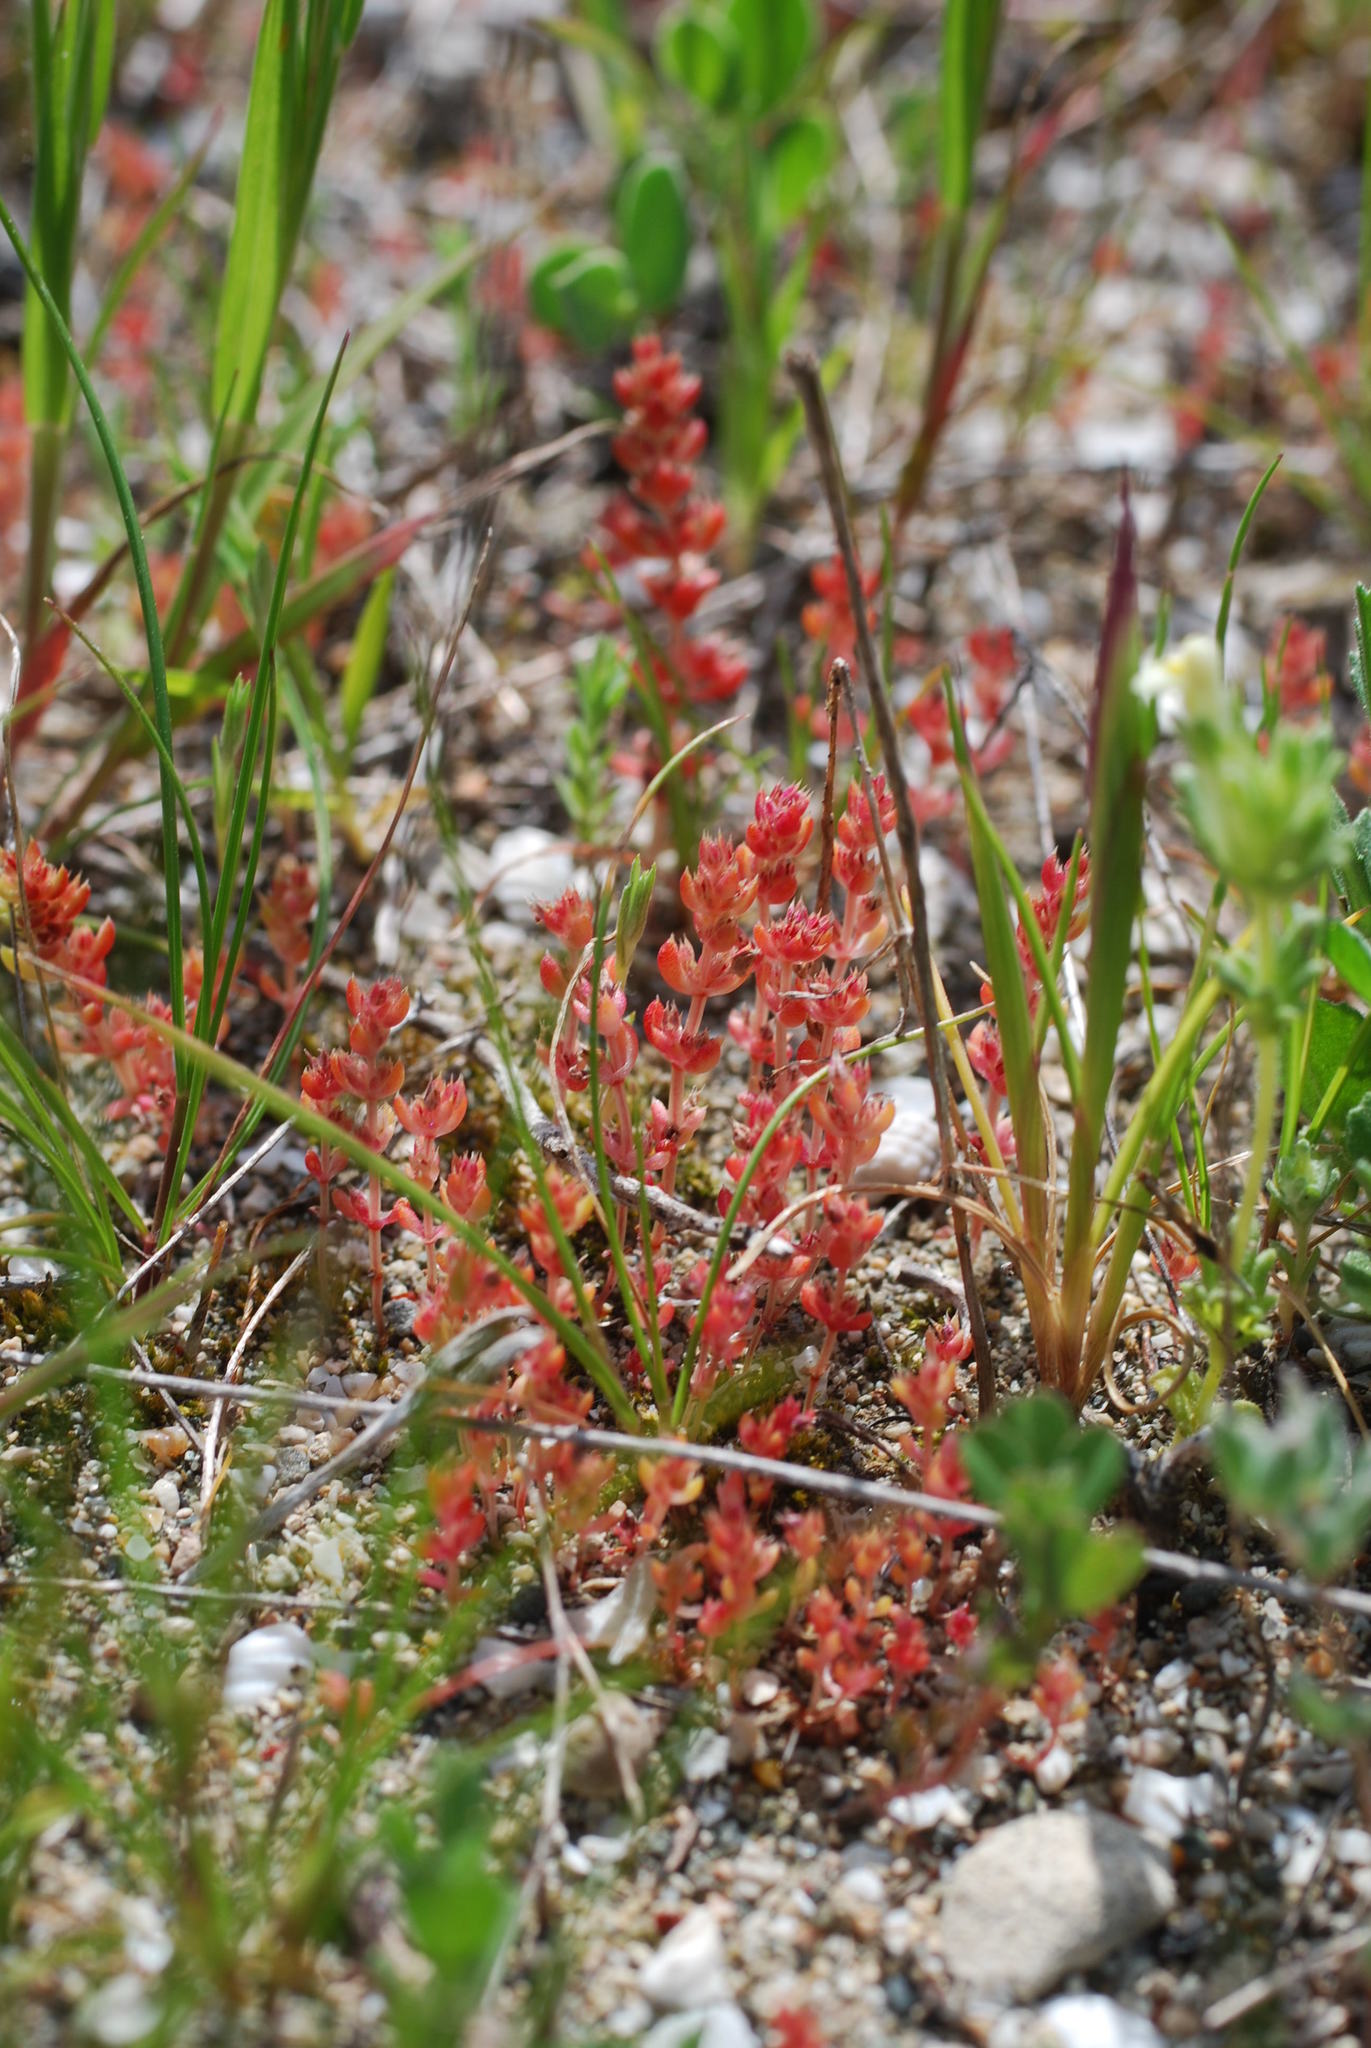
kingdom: Plantae
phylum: Tracheophyta
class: Magnoliopsida
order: Saxifragales
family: Crassulaceae
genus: Crassula
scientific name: Crassula alata
